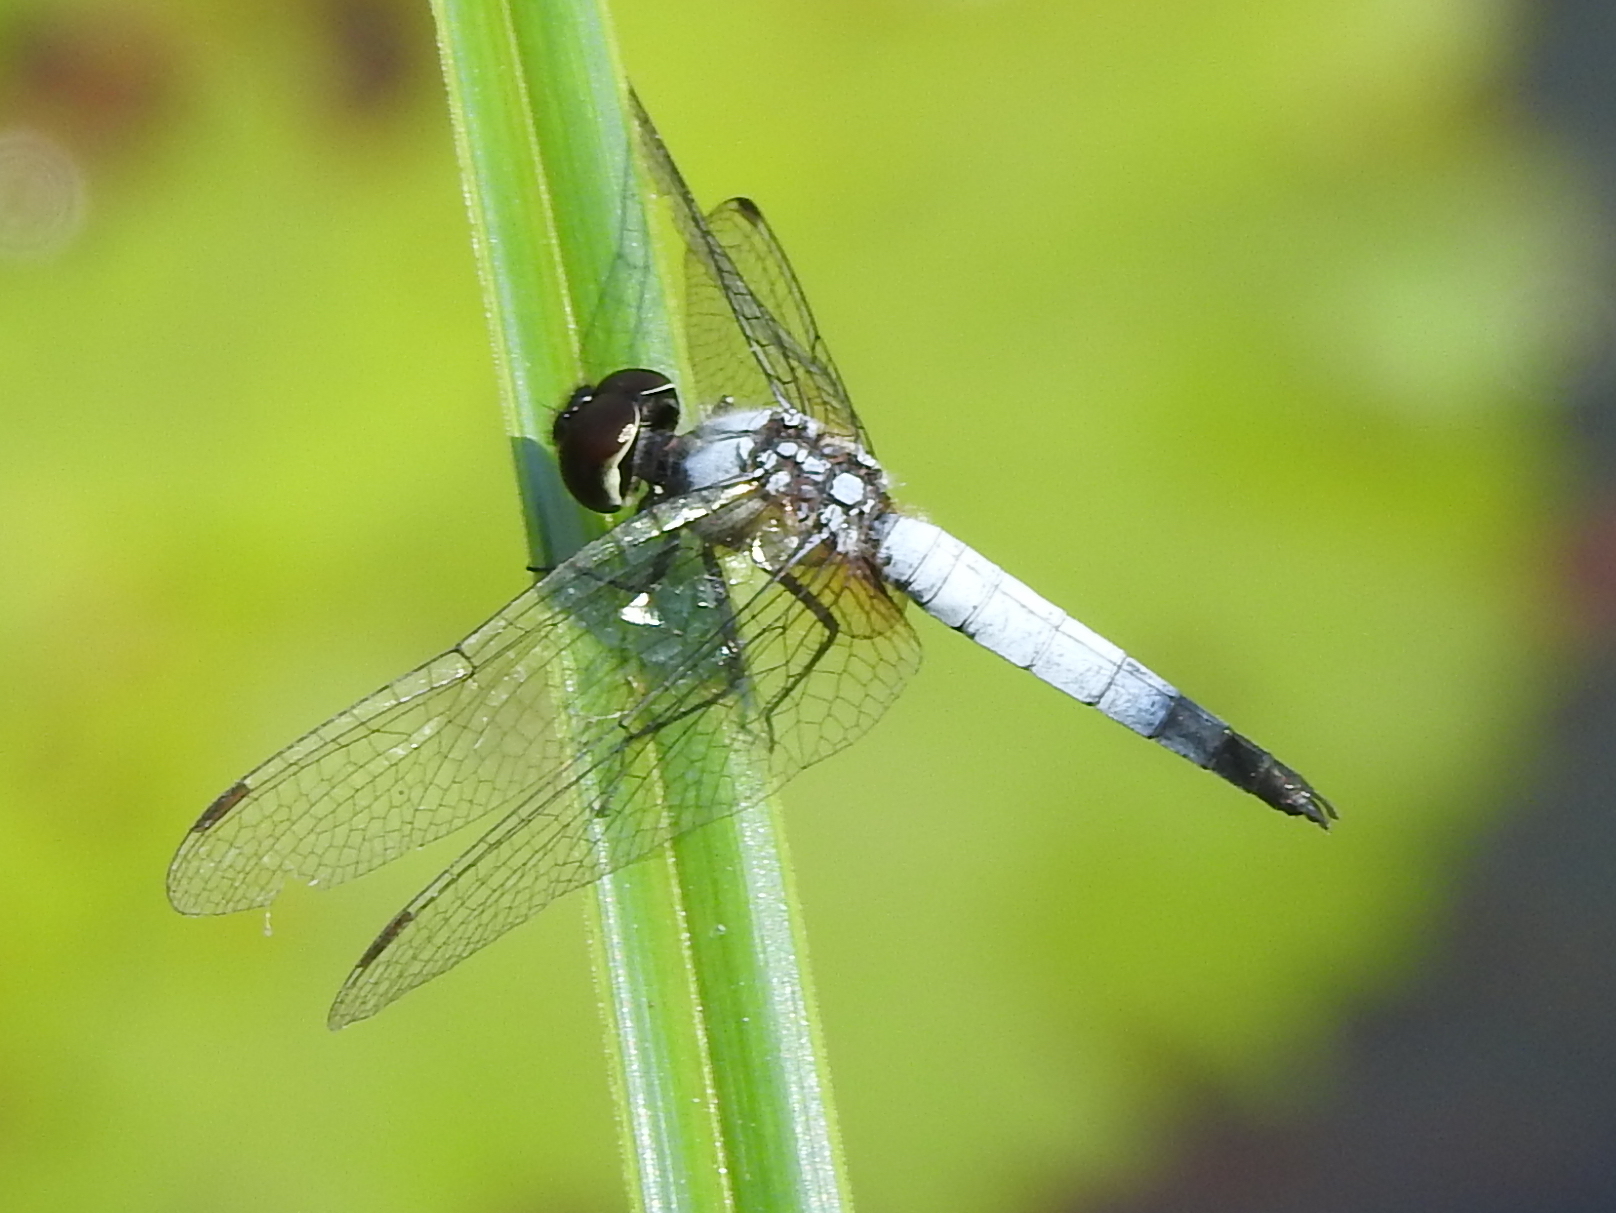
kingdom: Animalia
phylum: Arthropoda
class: Insecta
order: Odonata
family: Libellulidae
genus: Aethriamanta
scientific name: Aethriamanta gracilis
